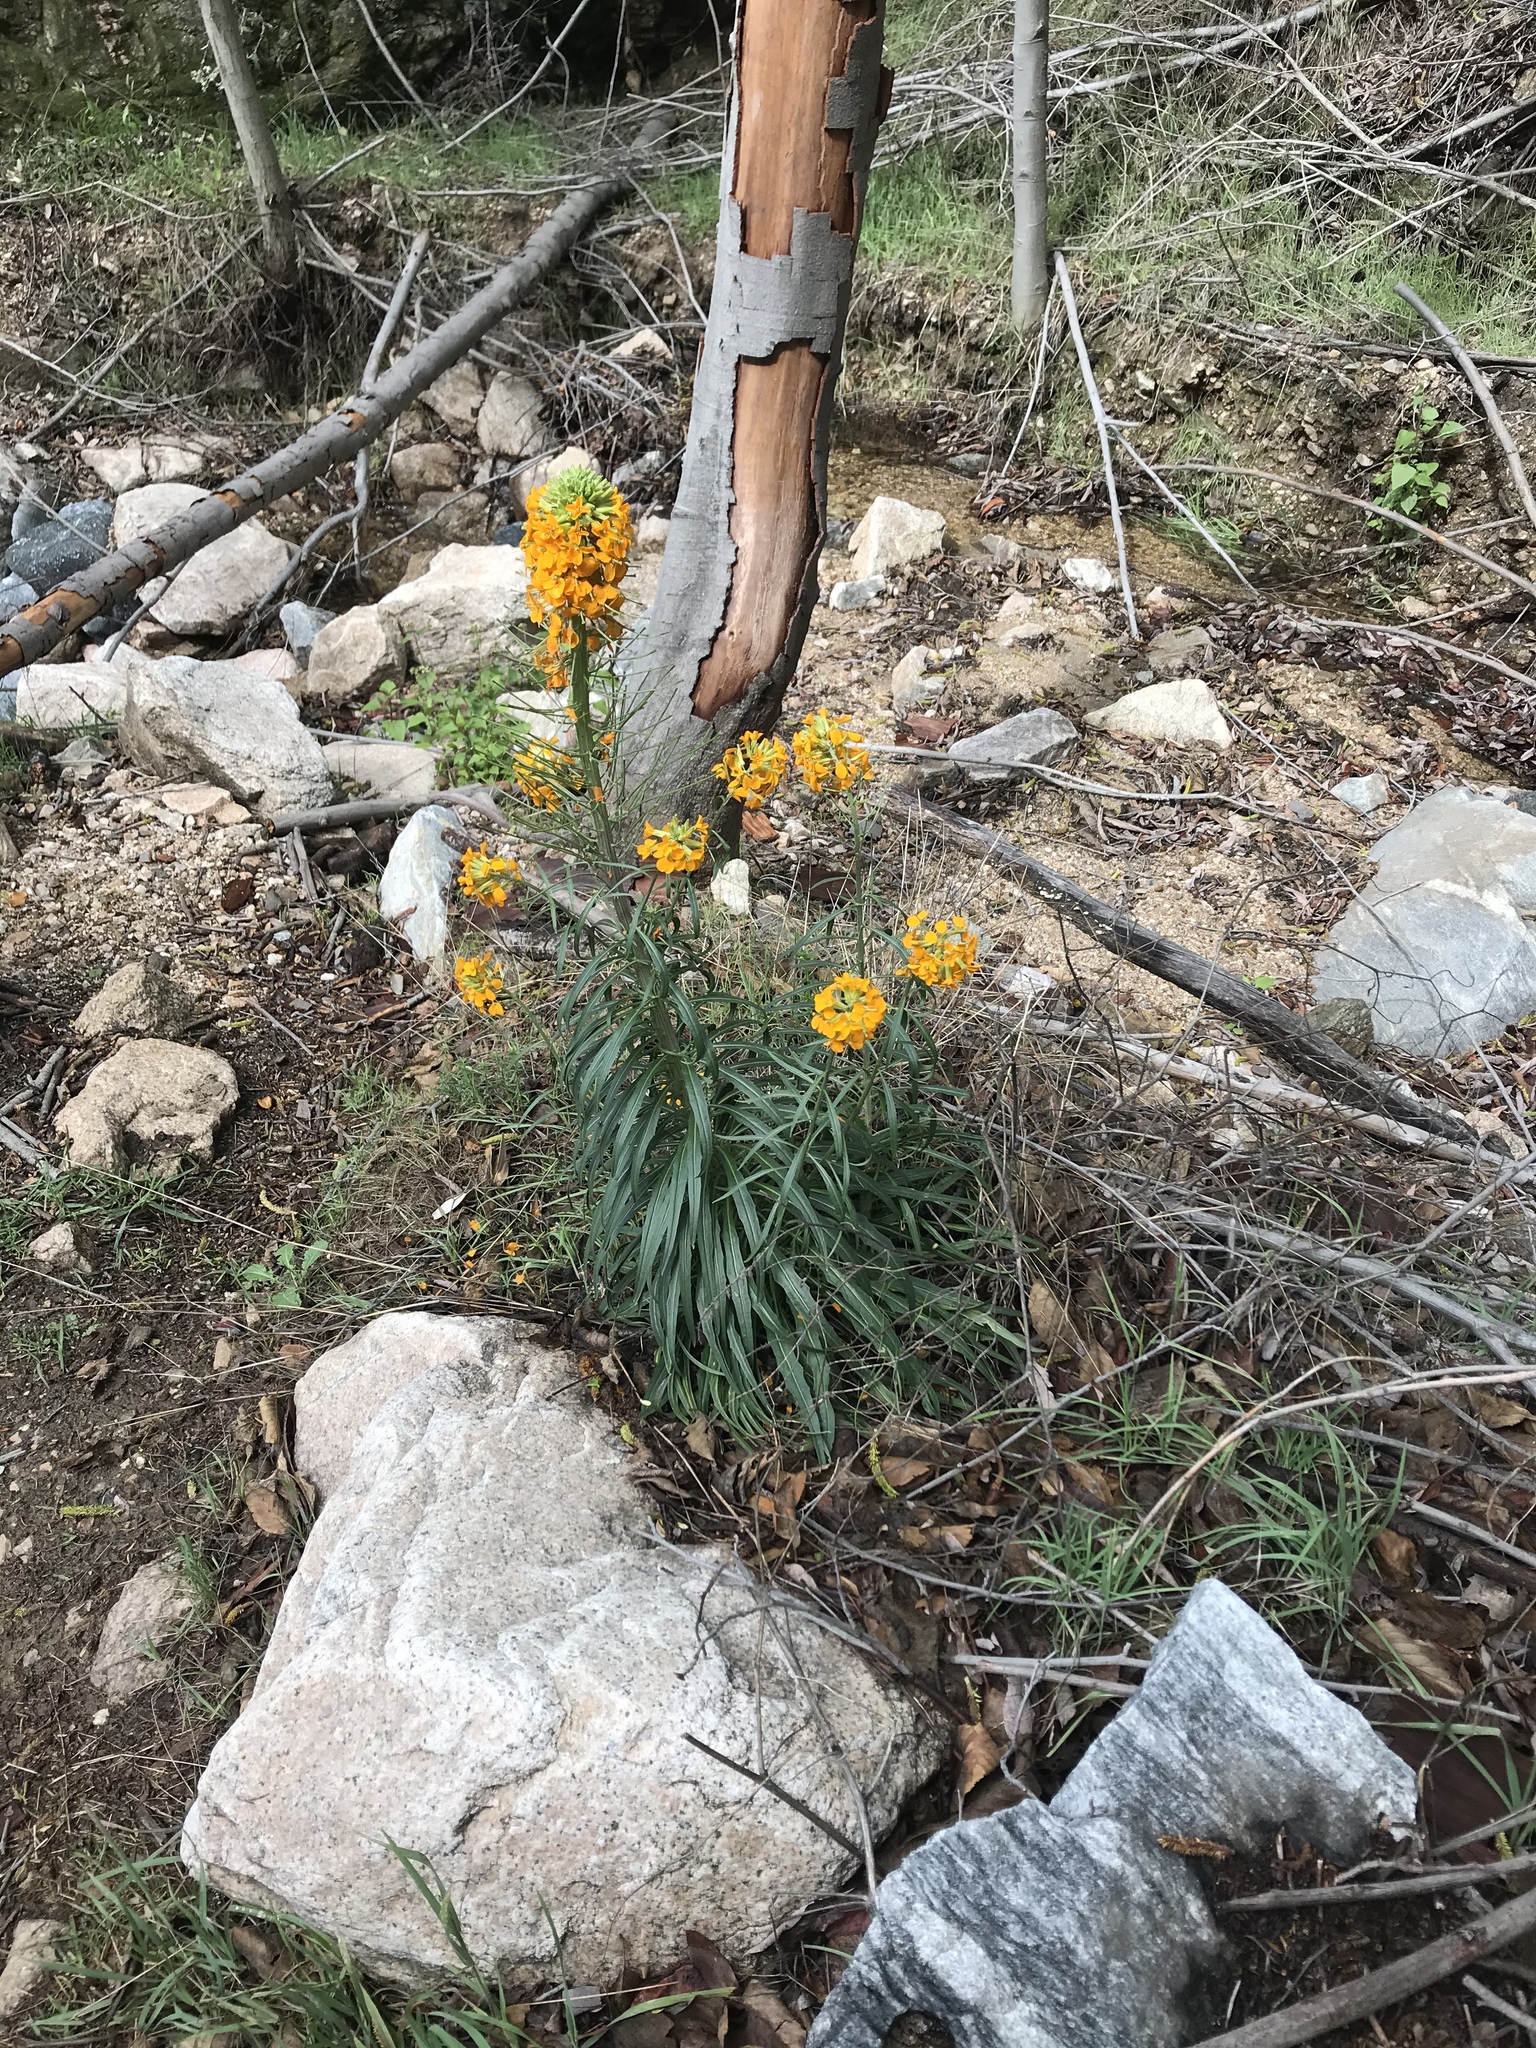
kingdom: Plantae
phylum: Tracheophyta
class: Magnoliopsida
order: Brassicales
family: Brassicaceae
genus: Erysimum
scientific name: Erysimum capitatum
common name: Western wallflower
